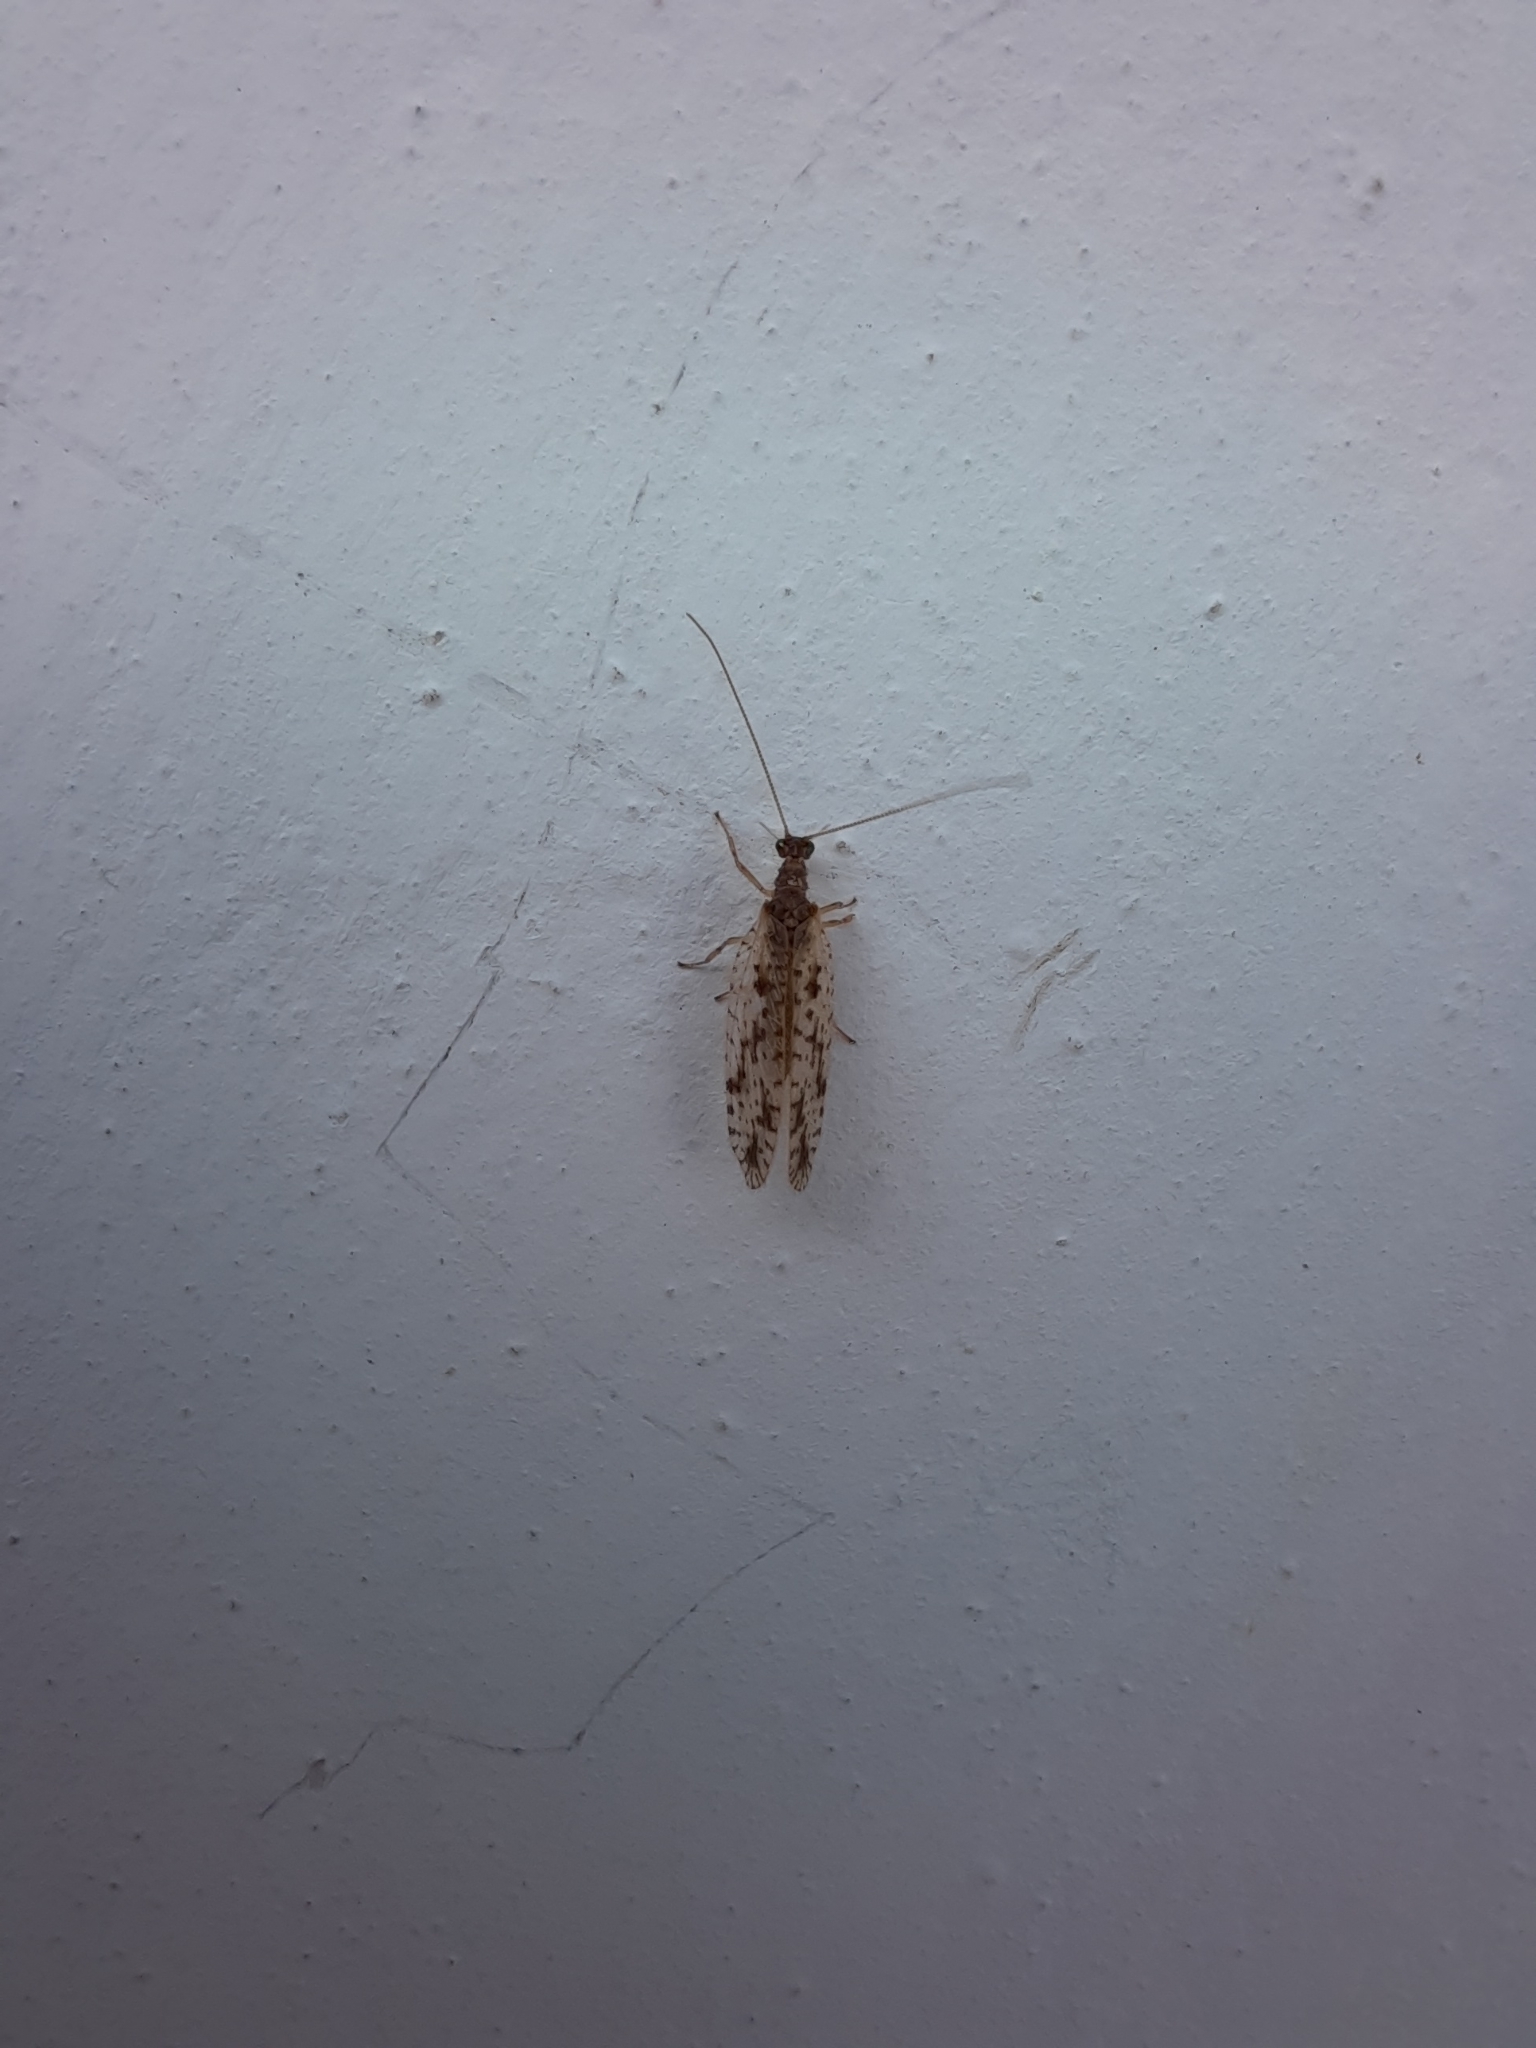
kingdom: Animalia
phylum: Arthropoda
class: Insecta
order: Neuroptera
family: Hemerobiidae
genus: Micromus
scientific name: Micromus variegatus
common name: Brown lacewing
